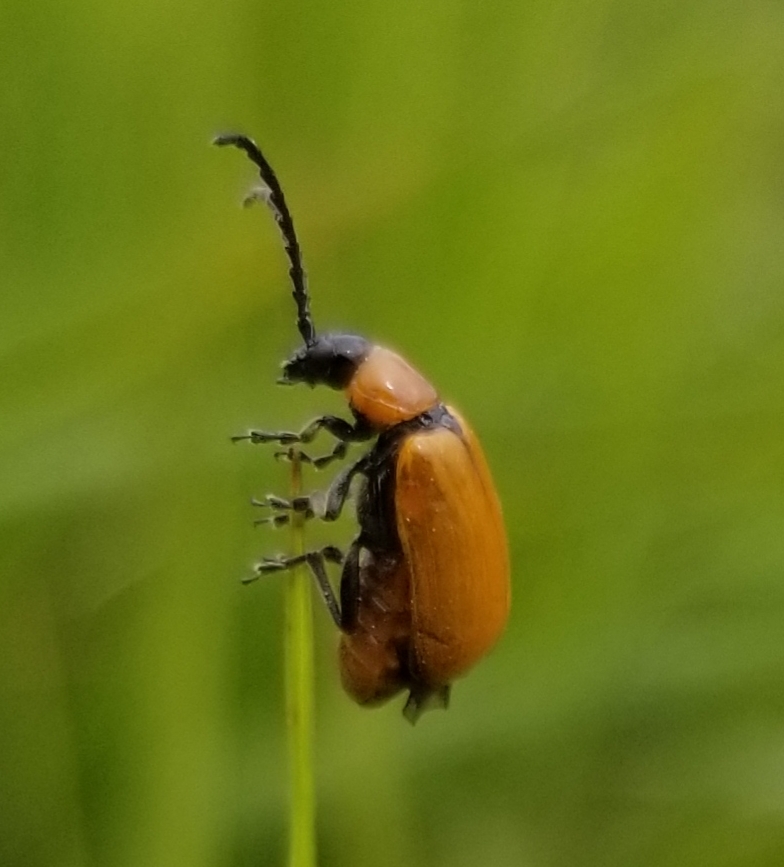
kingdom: Animalia
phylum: Arthropoda
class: Insecta
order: Coleoptera
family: Chrysomelidae
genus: Exosoma
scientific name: Exosoma lusitanicum
